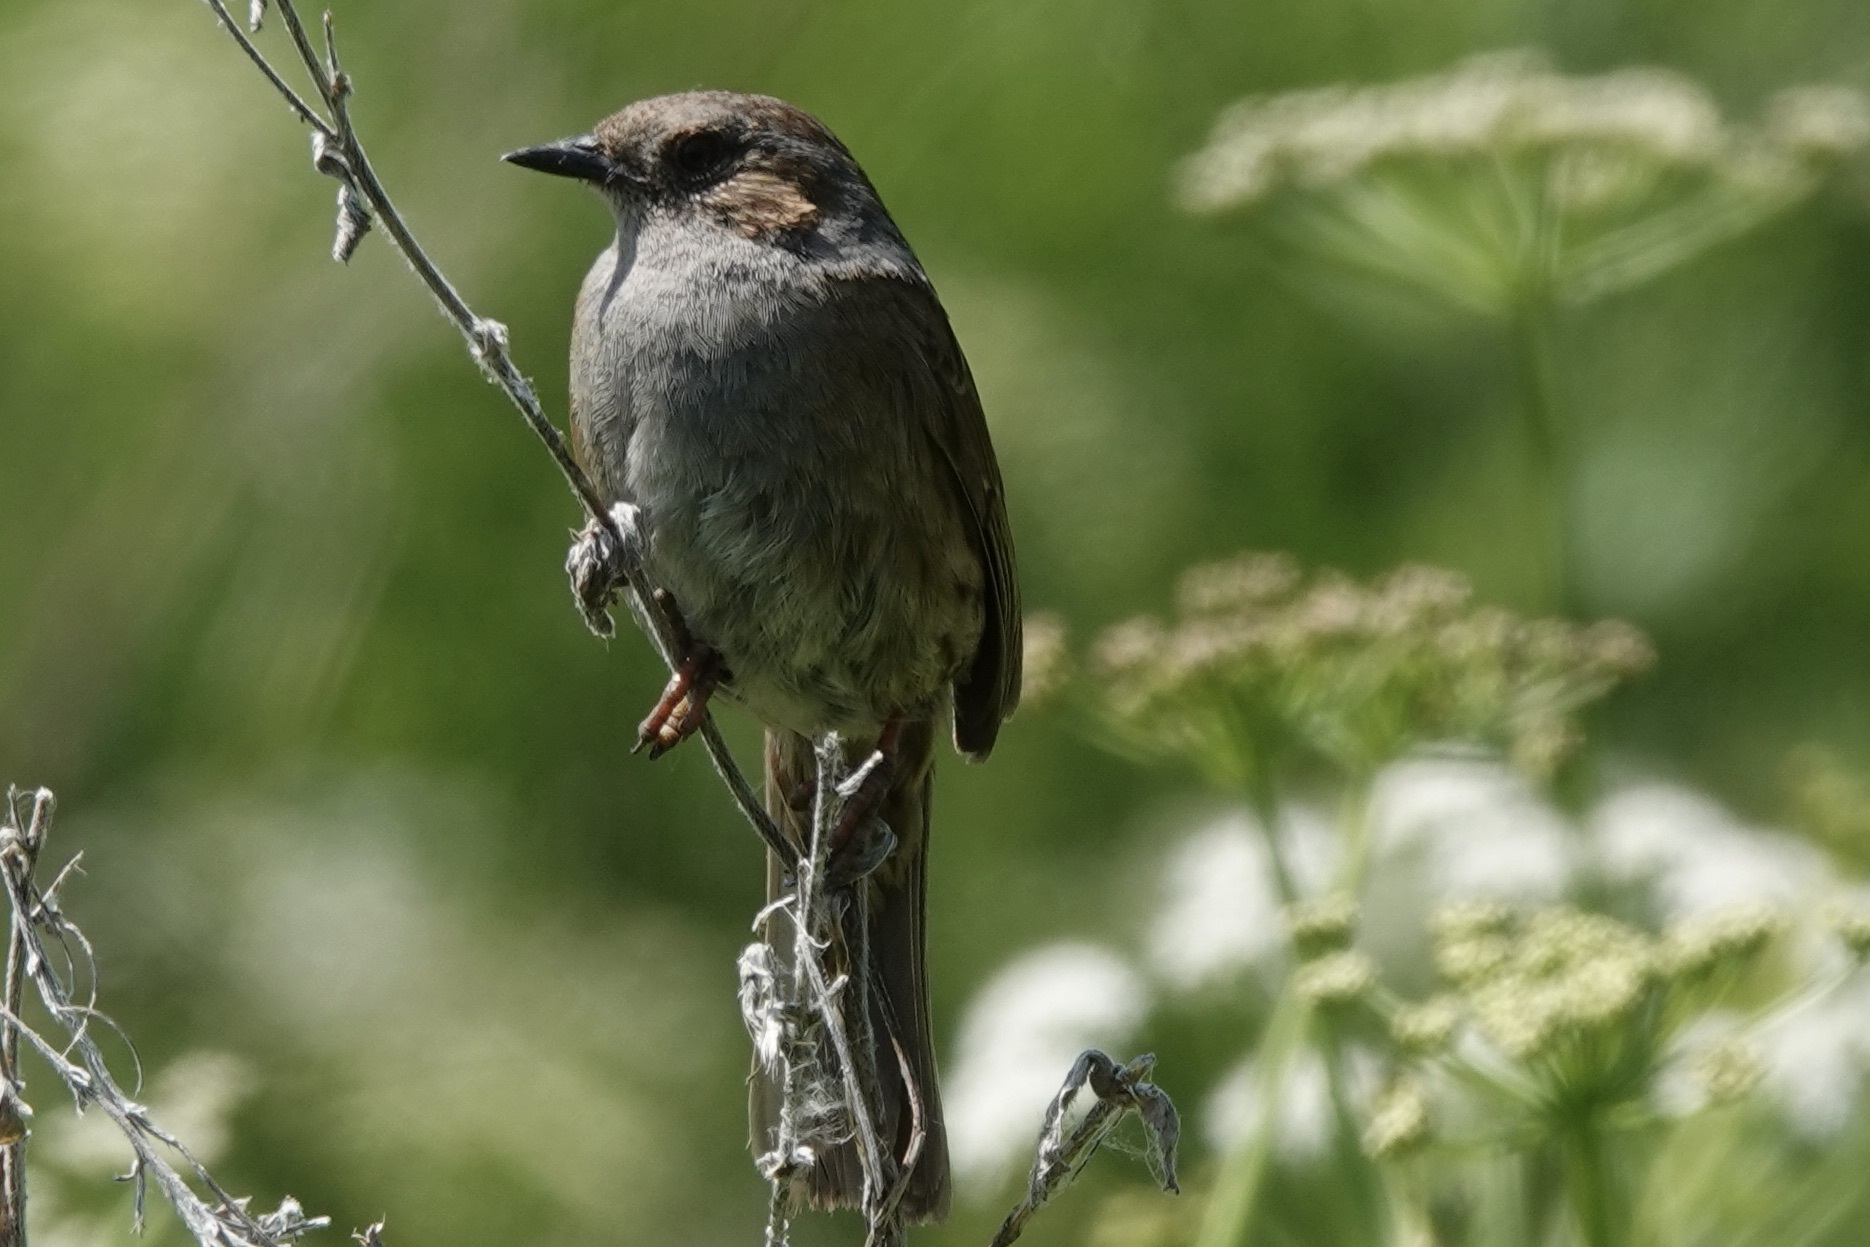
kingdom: Animalia
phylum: Chordata
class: Aves
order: Passeriformes
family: Prunellidae
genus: Prunella
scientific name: Prunella modularis
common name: Dunnock
